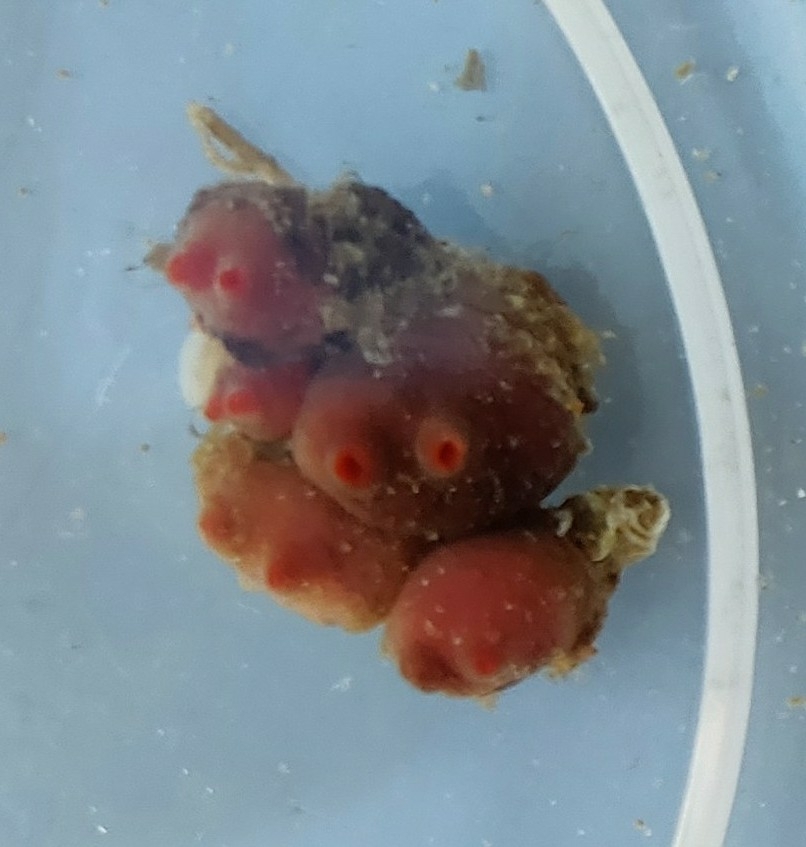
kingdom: Animalia
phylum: Chordata
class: Ascidiacea
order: Stolidobranchia
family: Styelidae
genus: Dendrodoa
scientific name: Dendrodoa grossularia
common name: Baked bean ascidian
